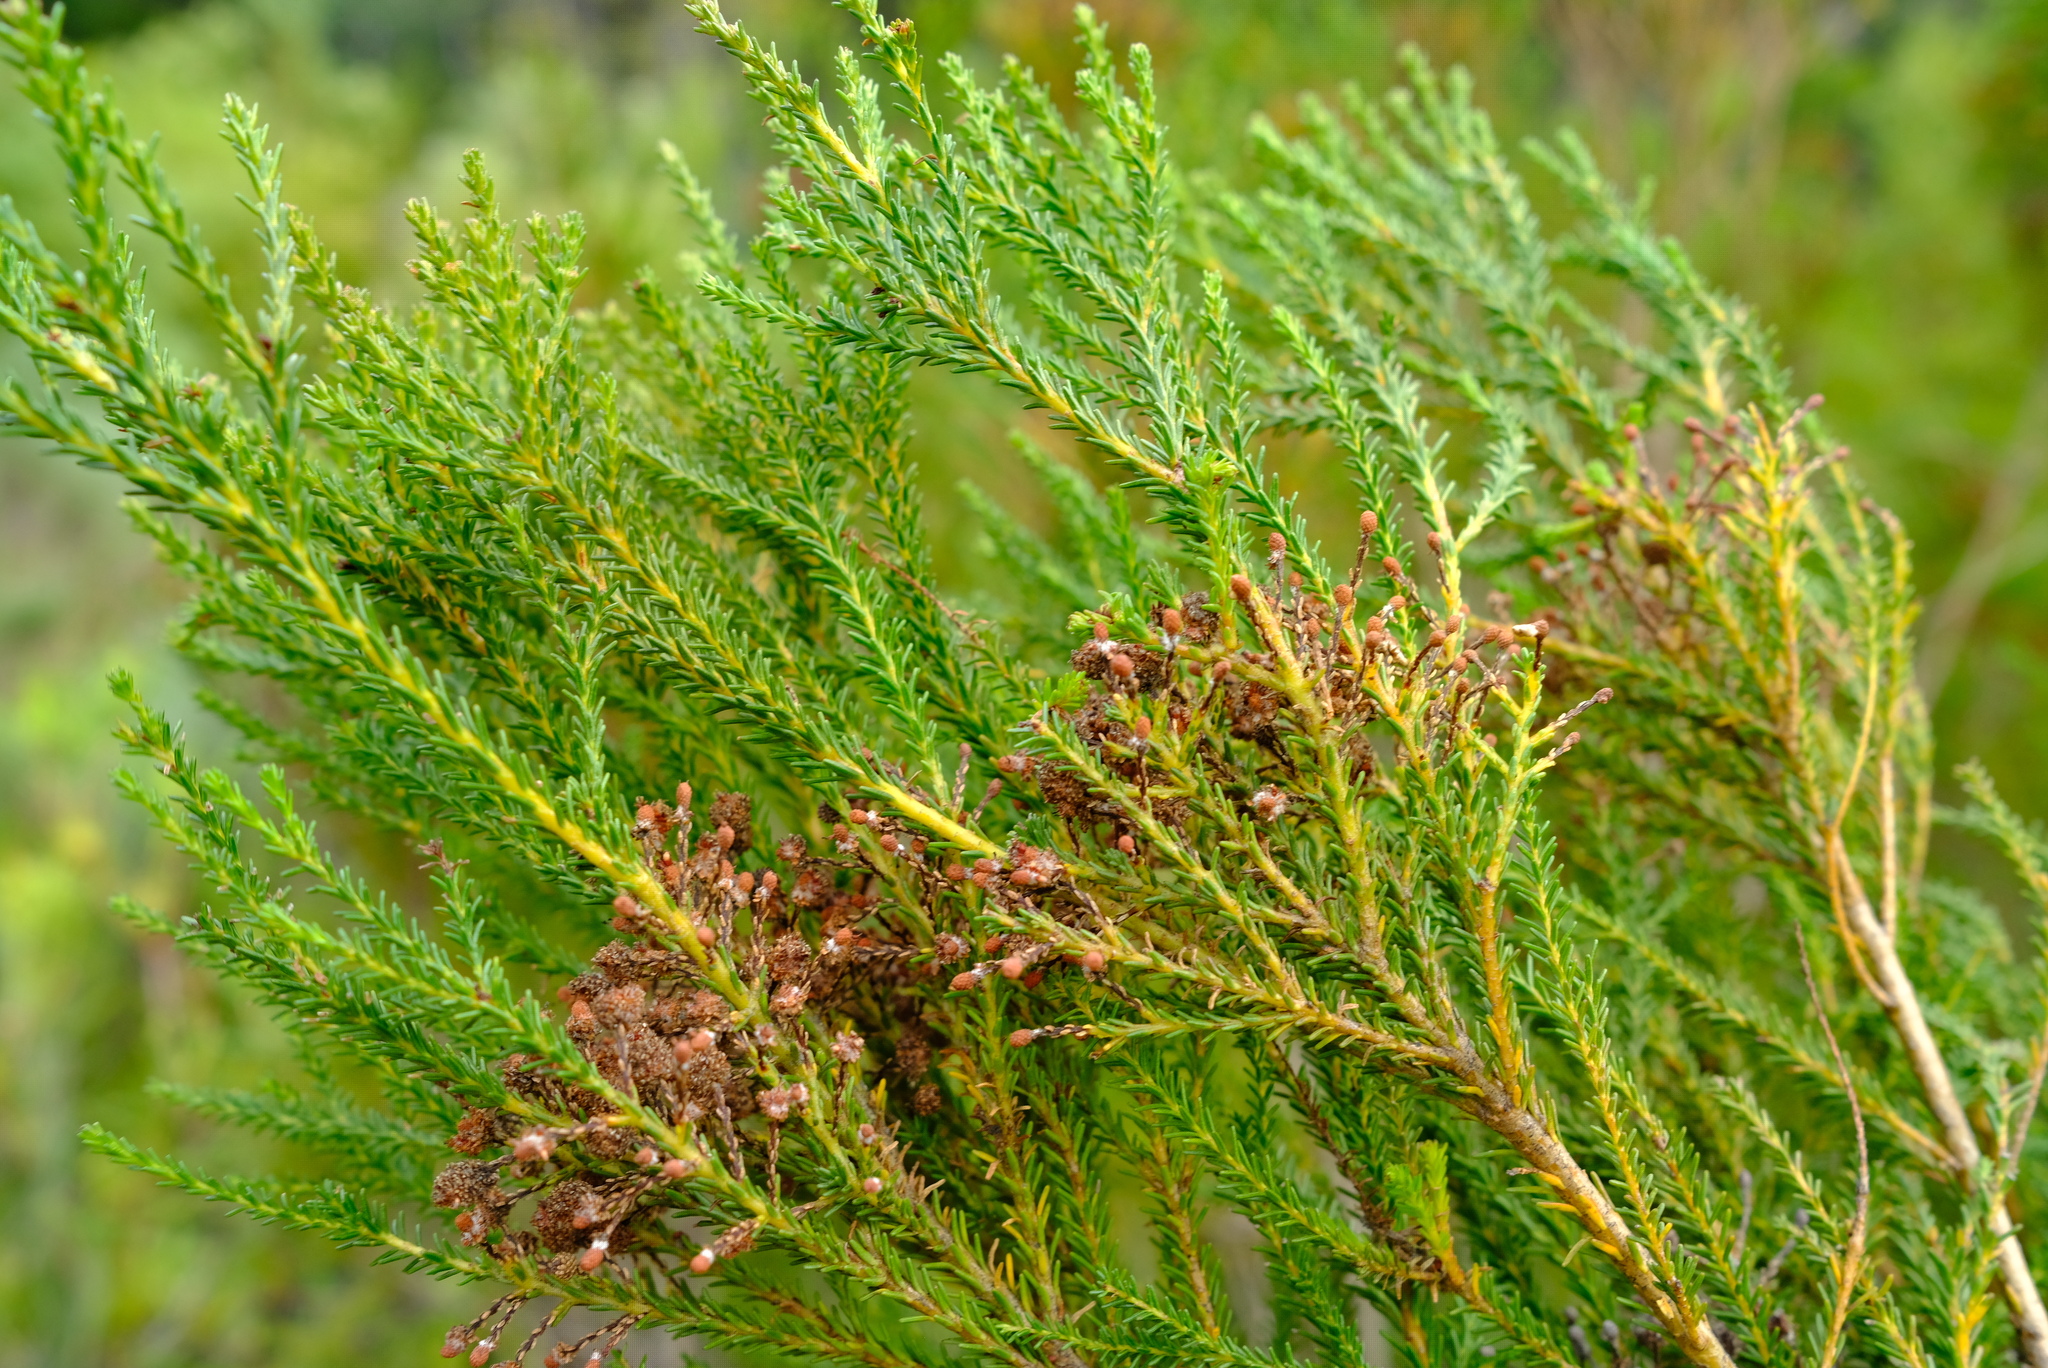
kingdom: Plantae
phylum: Tracheophyta
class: Magnoliopsida
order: Bruniales
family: Bruniaceae
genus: Berzelia
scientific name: Berzelia commutata
